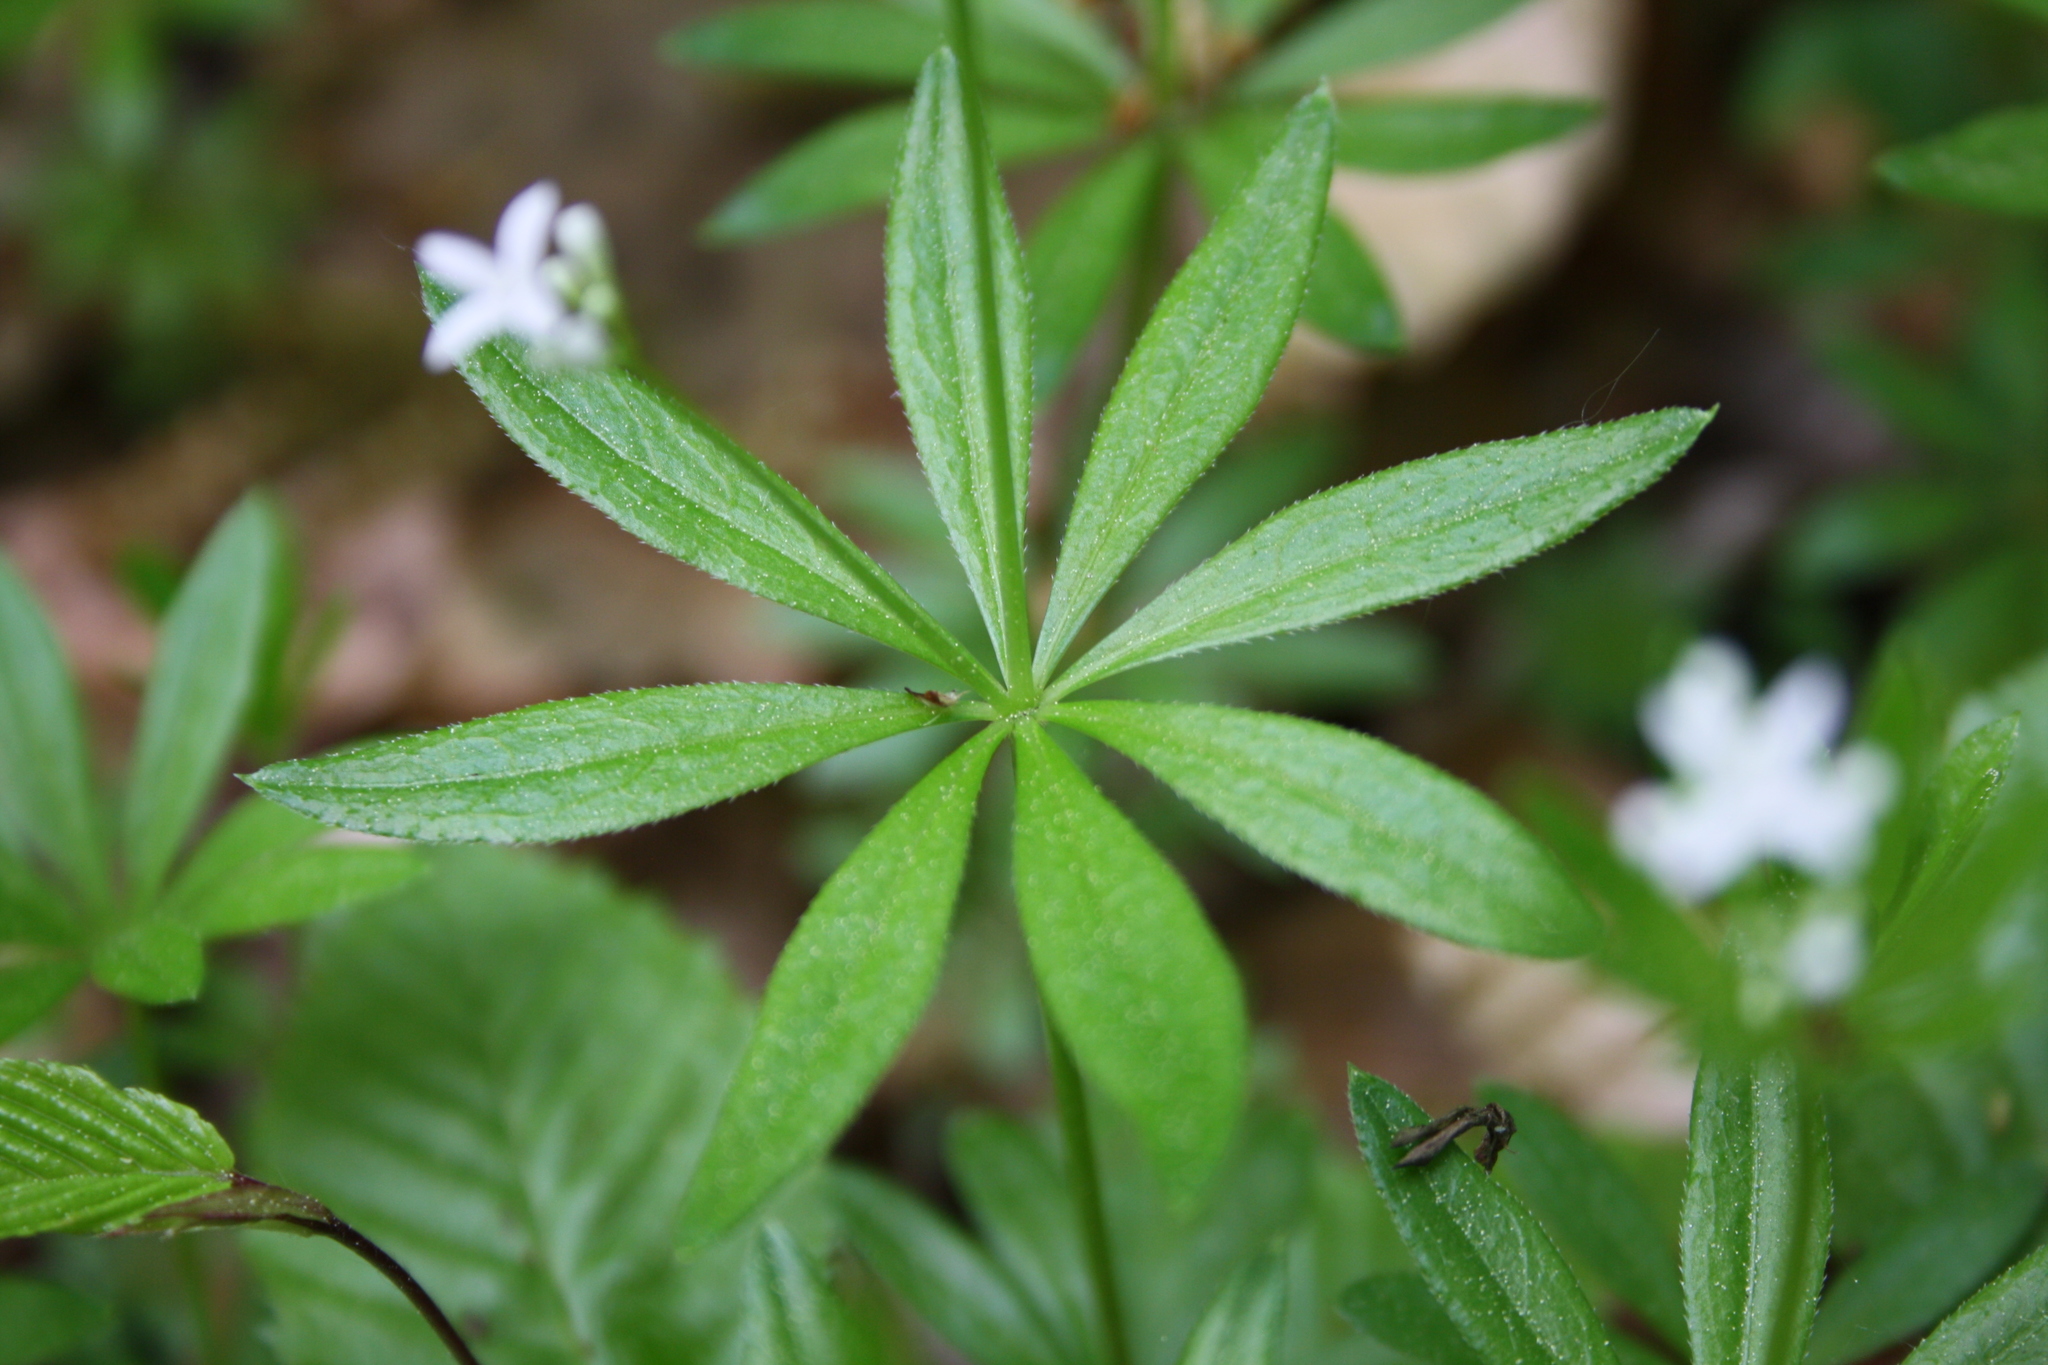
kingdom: Plantae
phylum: Tracheophyta
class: Magnoliopsida
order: Gentianales
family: Rubiaceae
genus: Galium
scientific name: Galium odoratum
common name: Sweet woodruff
